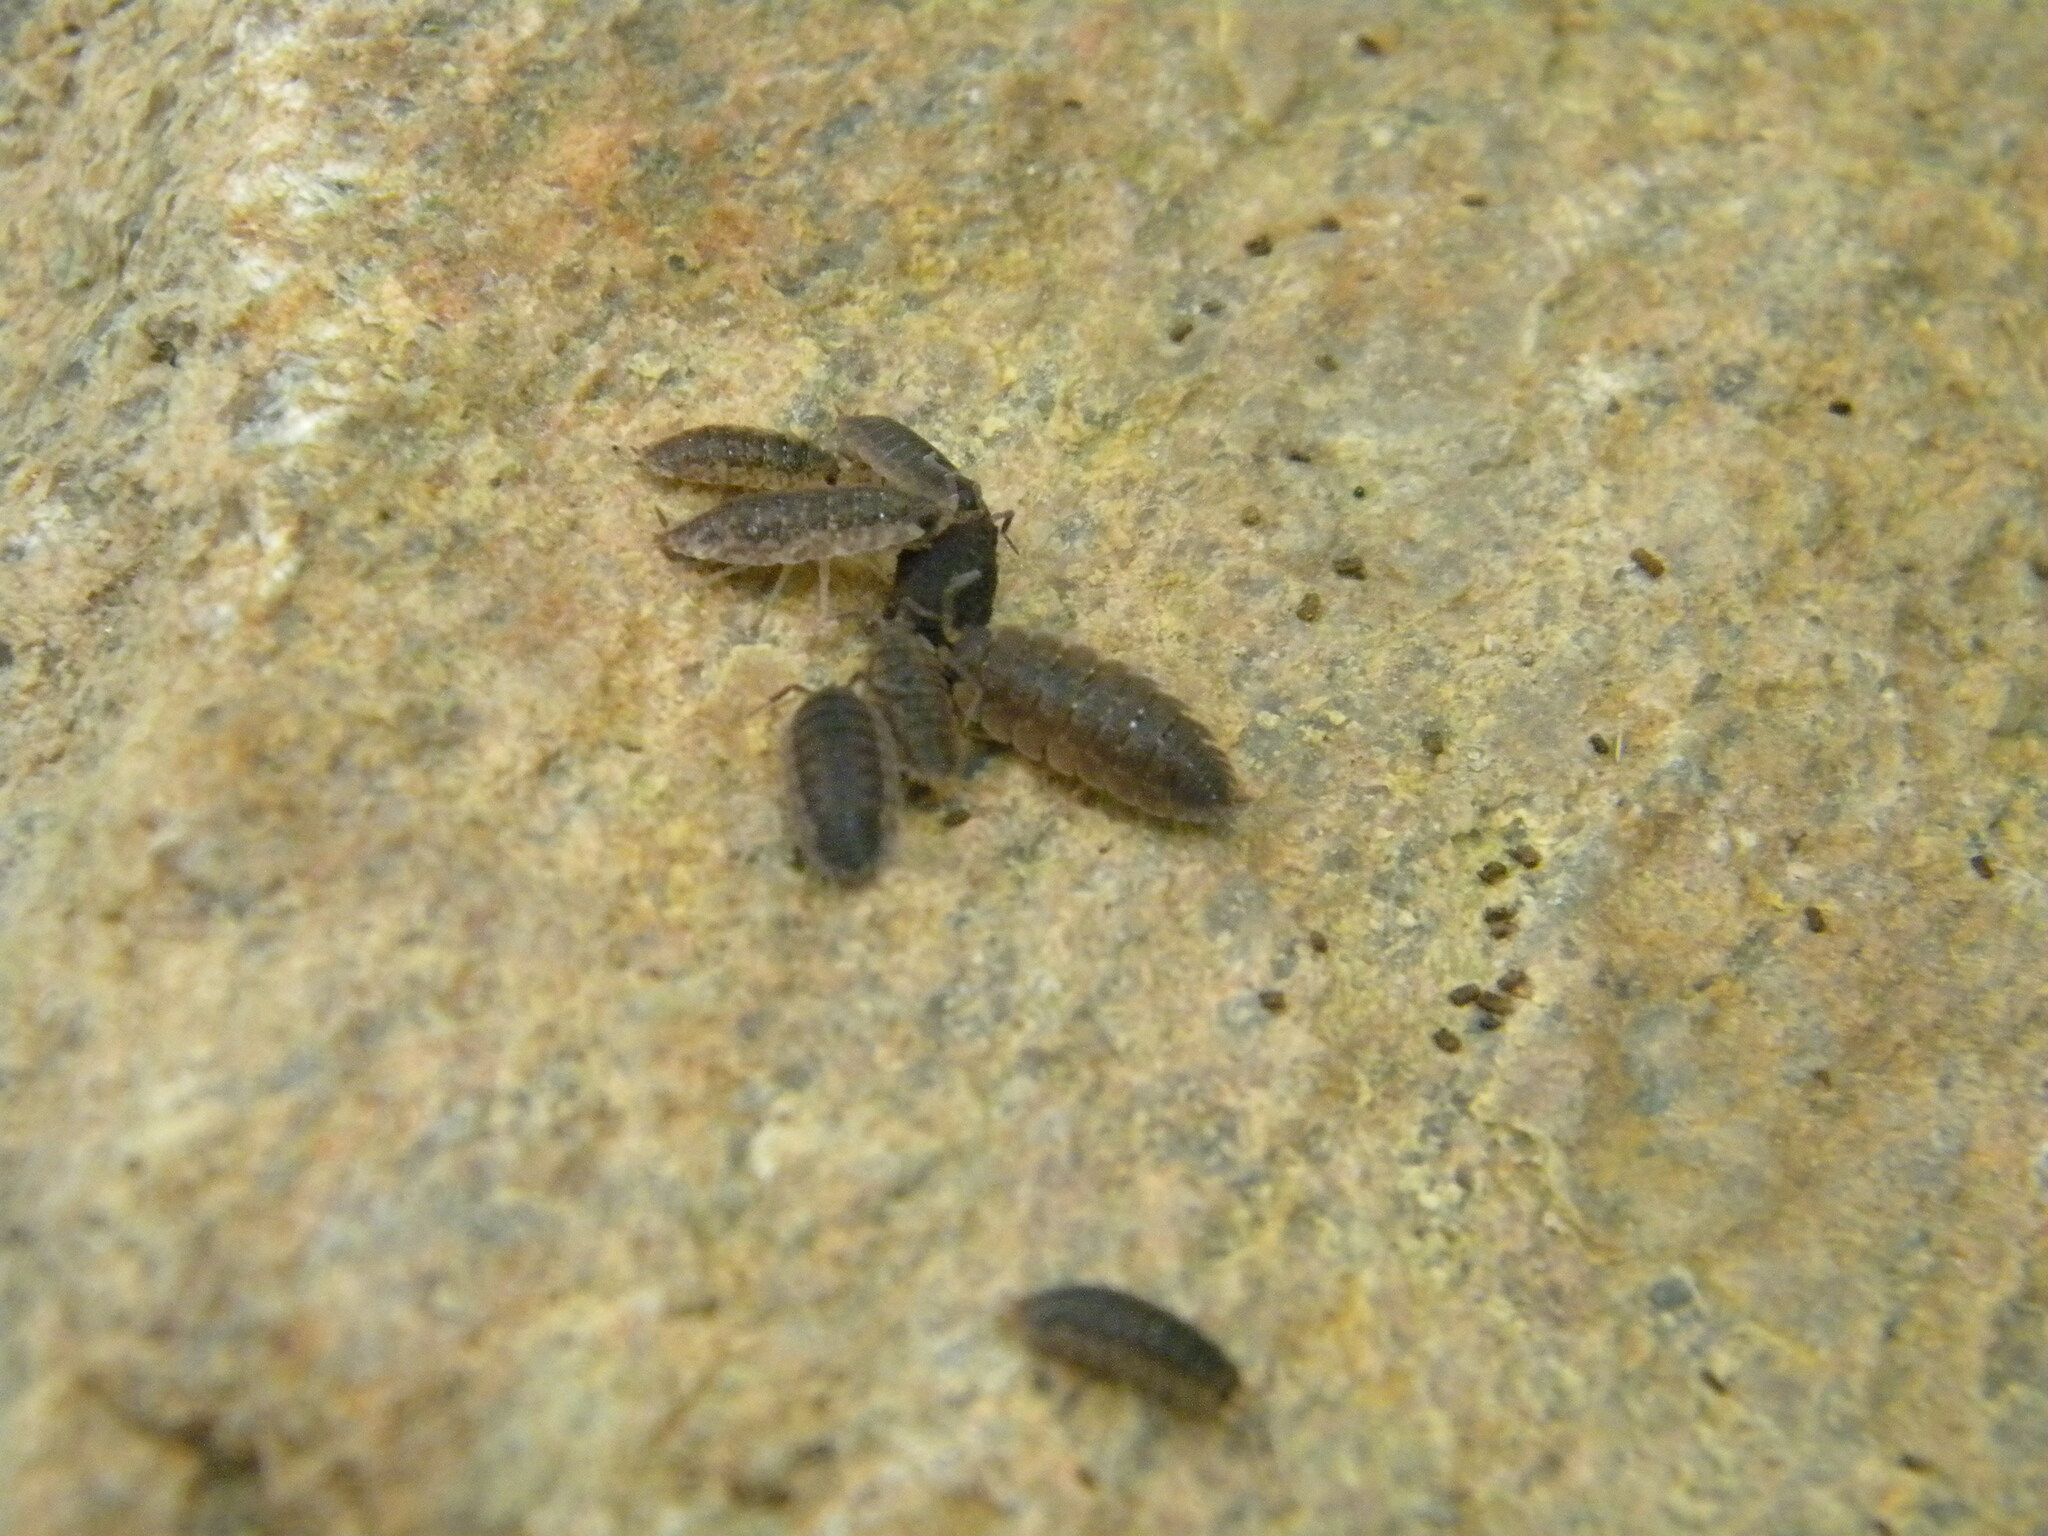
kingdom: Animalia
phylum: Arthropoda
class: Malacostraca
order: Isopoda
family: Porcellionidae
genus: Porcellio
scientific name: Porcellio scaber
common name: Common rough woodlouse
